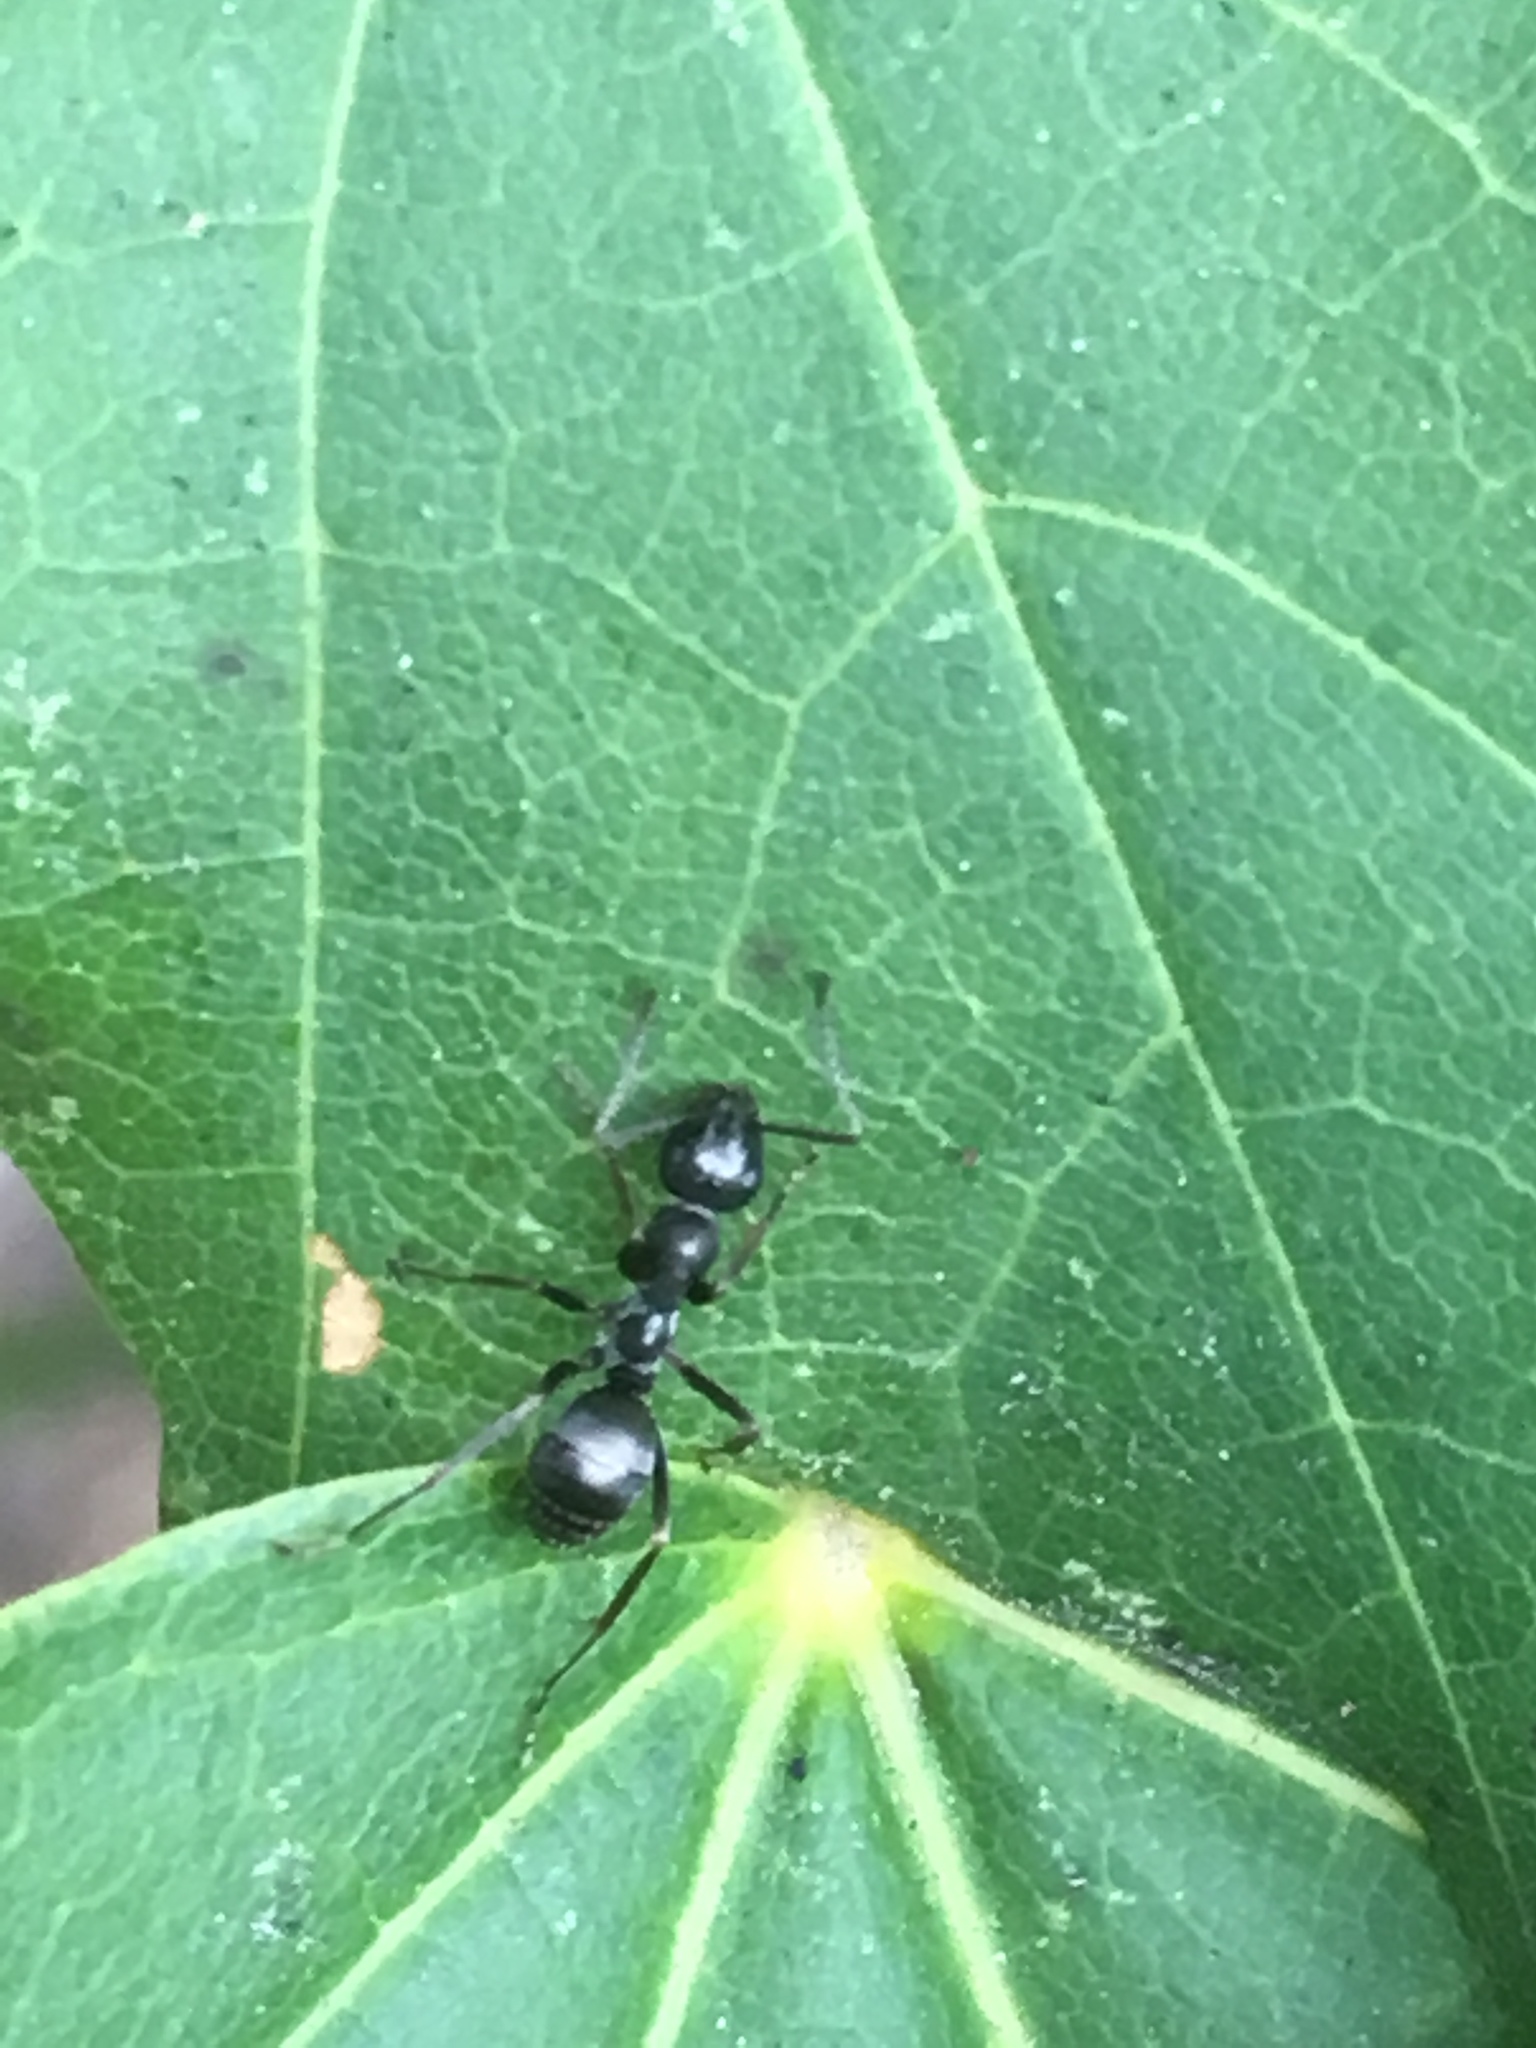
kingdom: Animalia
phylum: Arthropoda
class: Insecta
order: Hymenoptera
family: Formicidae
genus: Formica
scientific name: Formica
